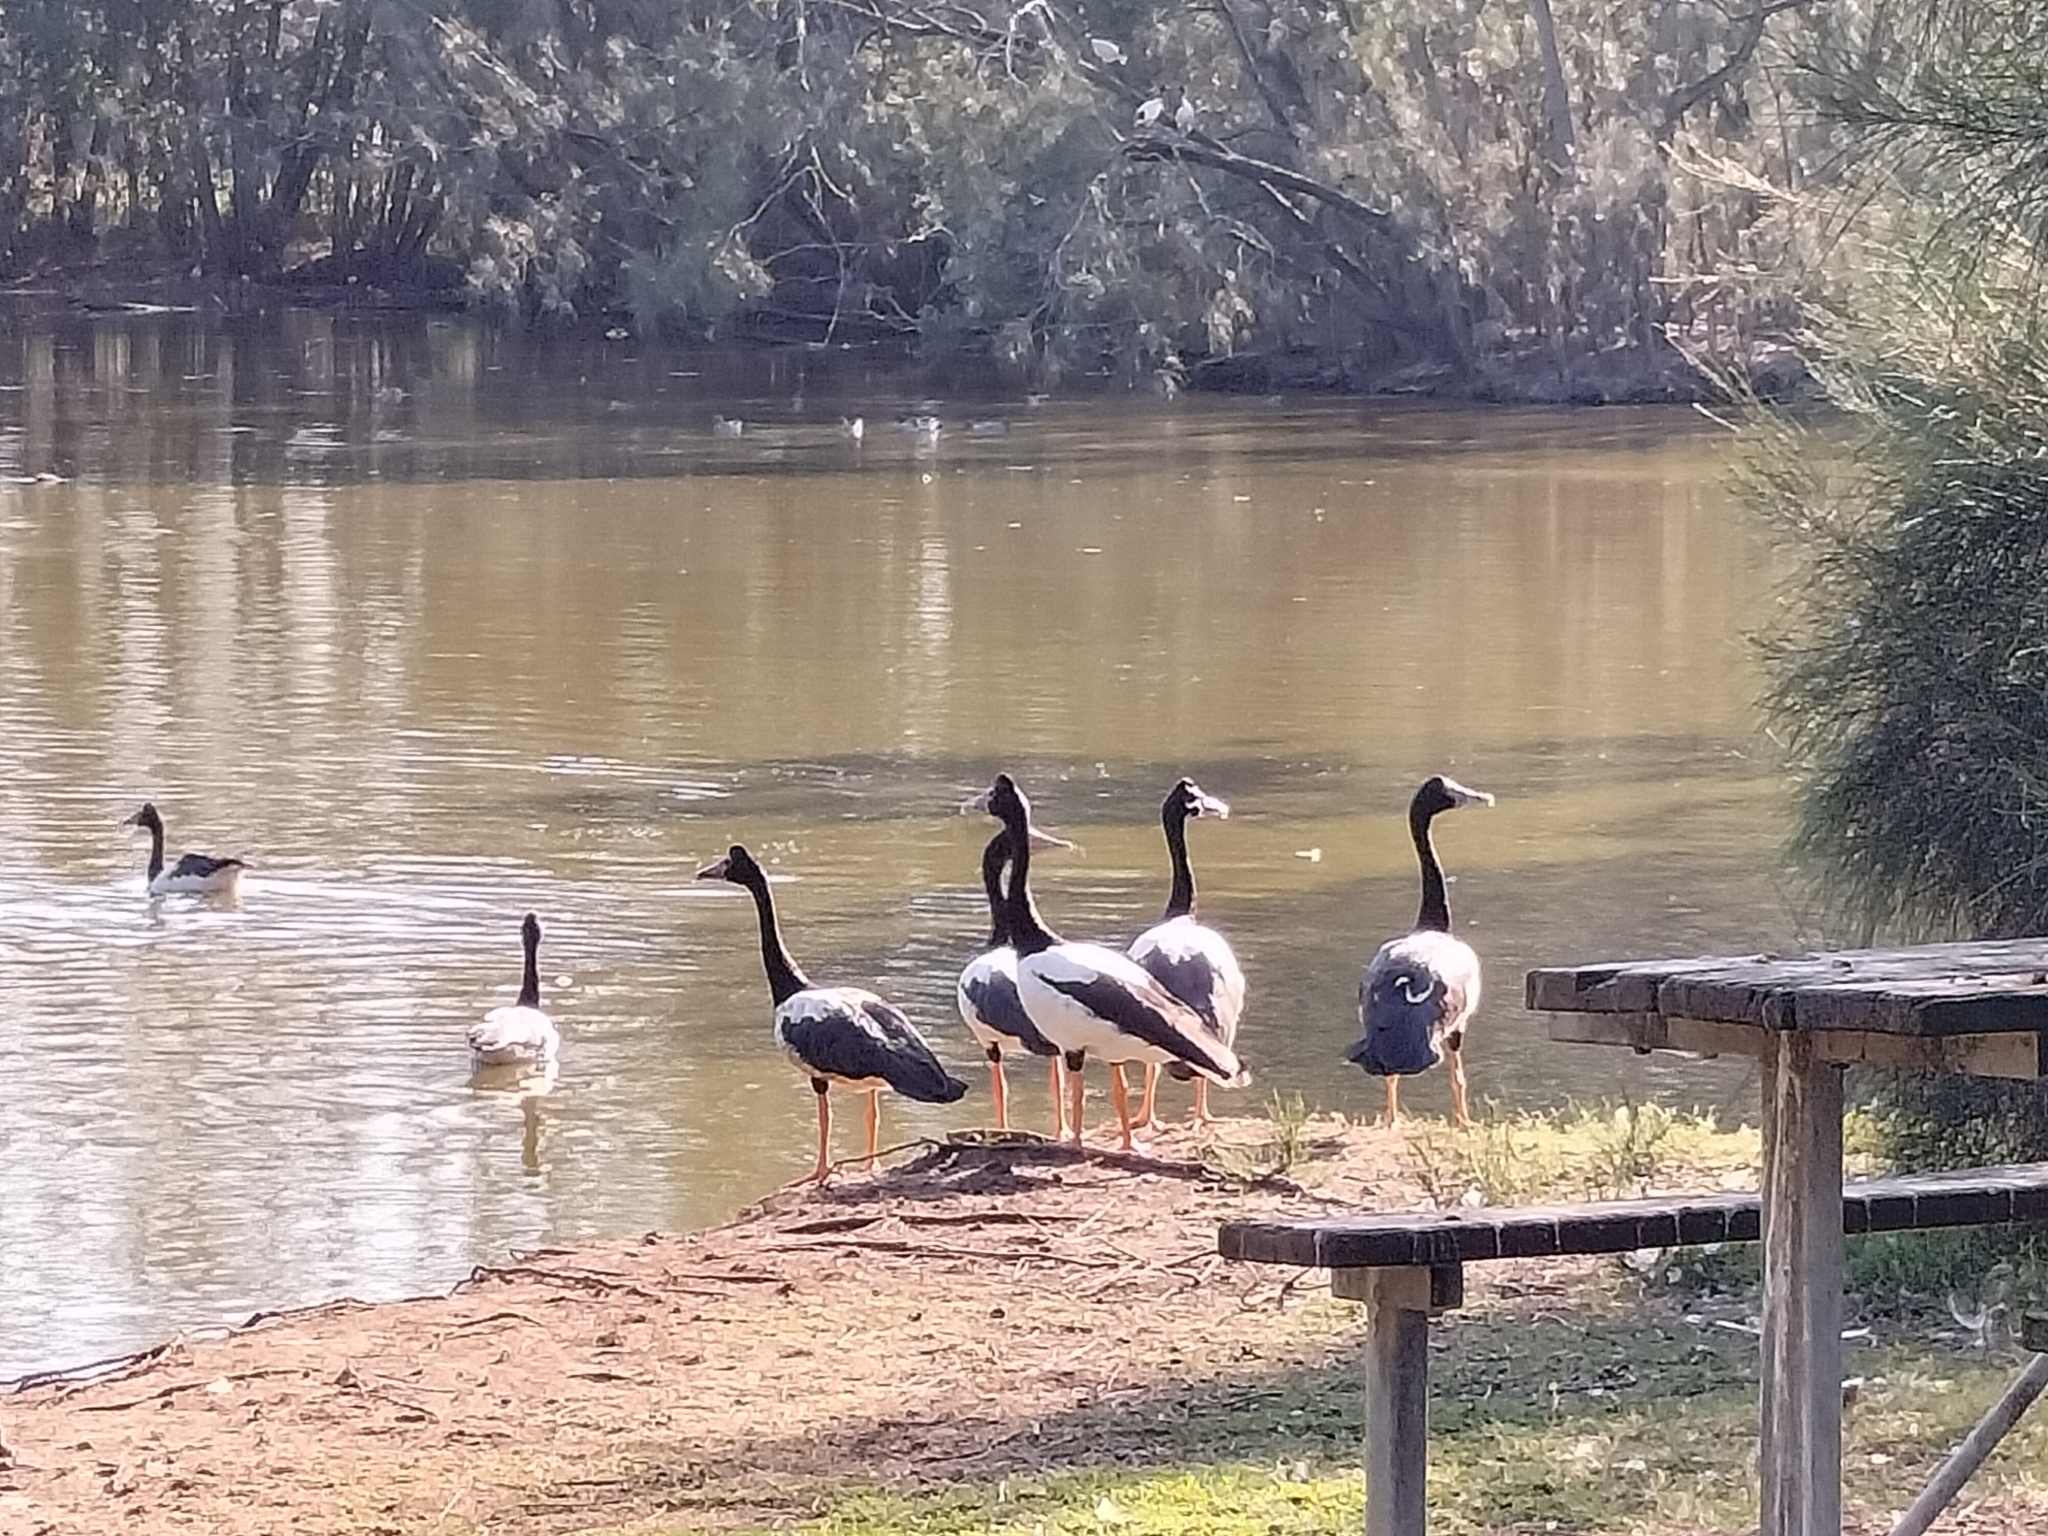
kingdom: Animalia
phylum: Chordata
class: Aves
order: Anseriformes
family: Anseranatidae
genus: Anseranas
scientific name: Anseranas semipalmata
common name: Magpie goose
